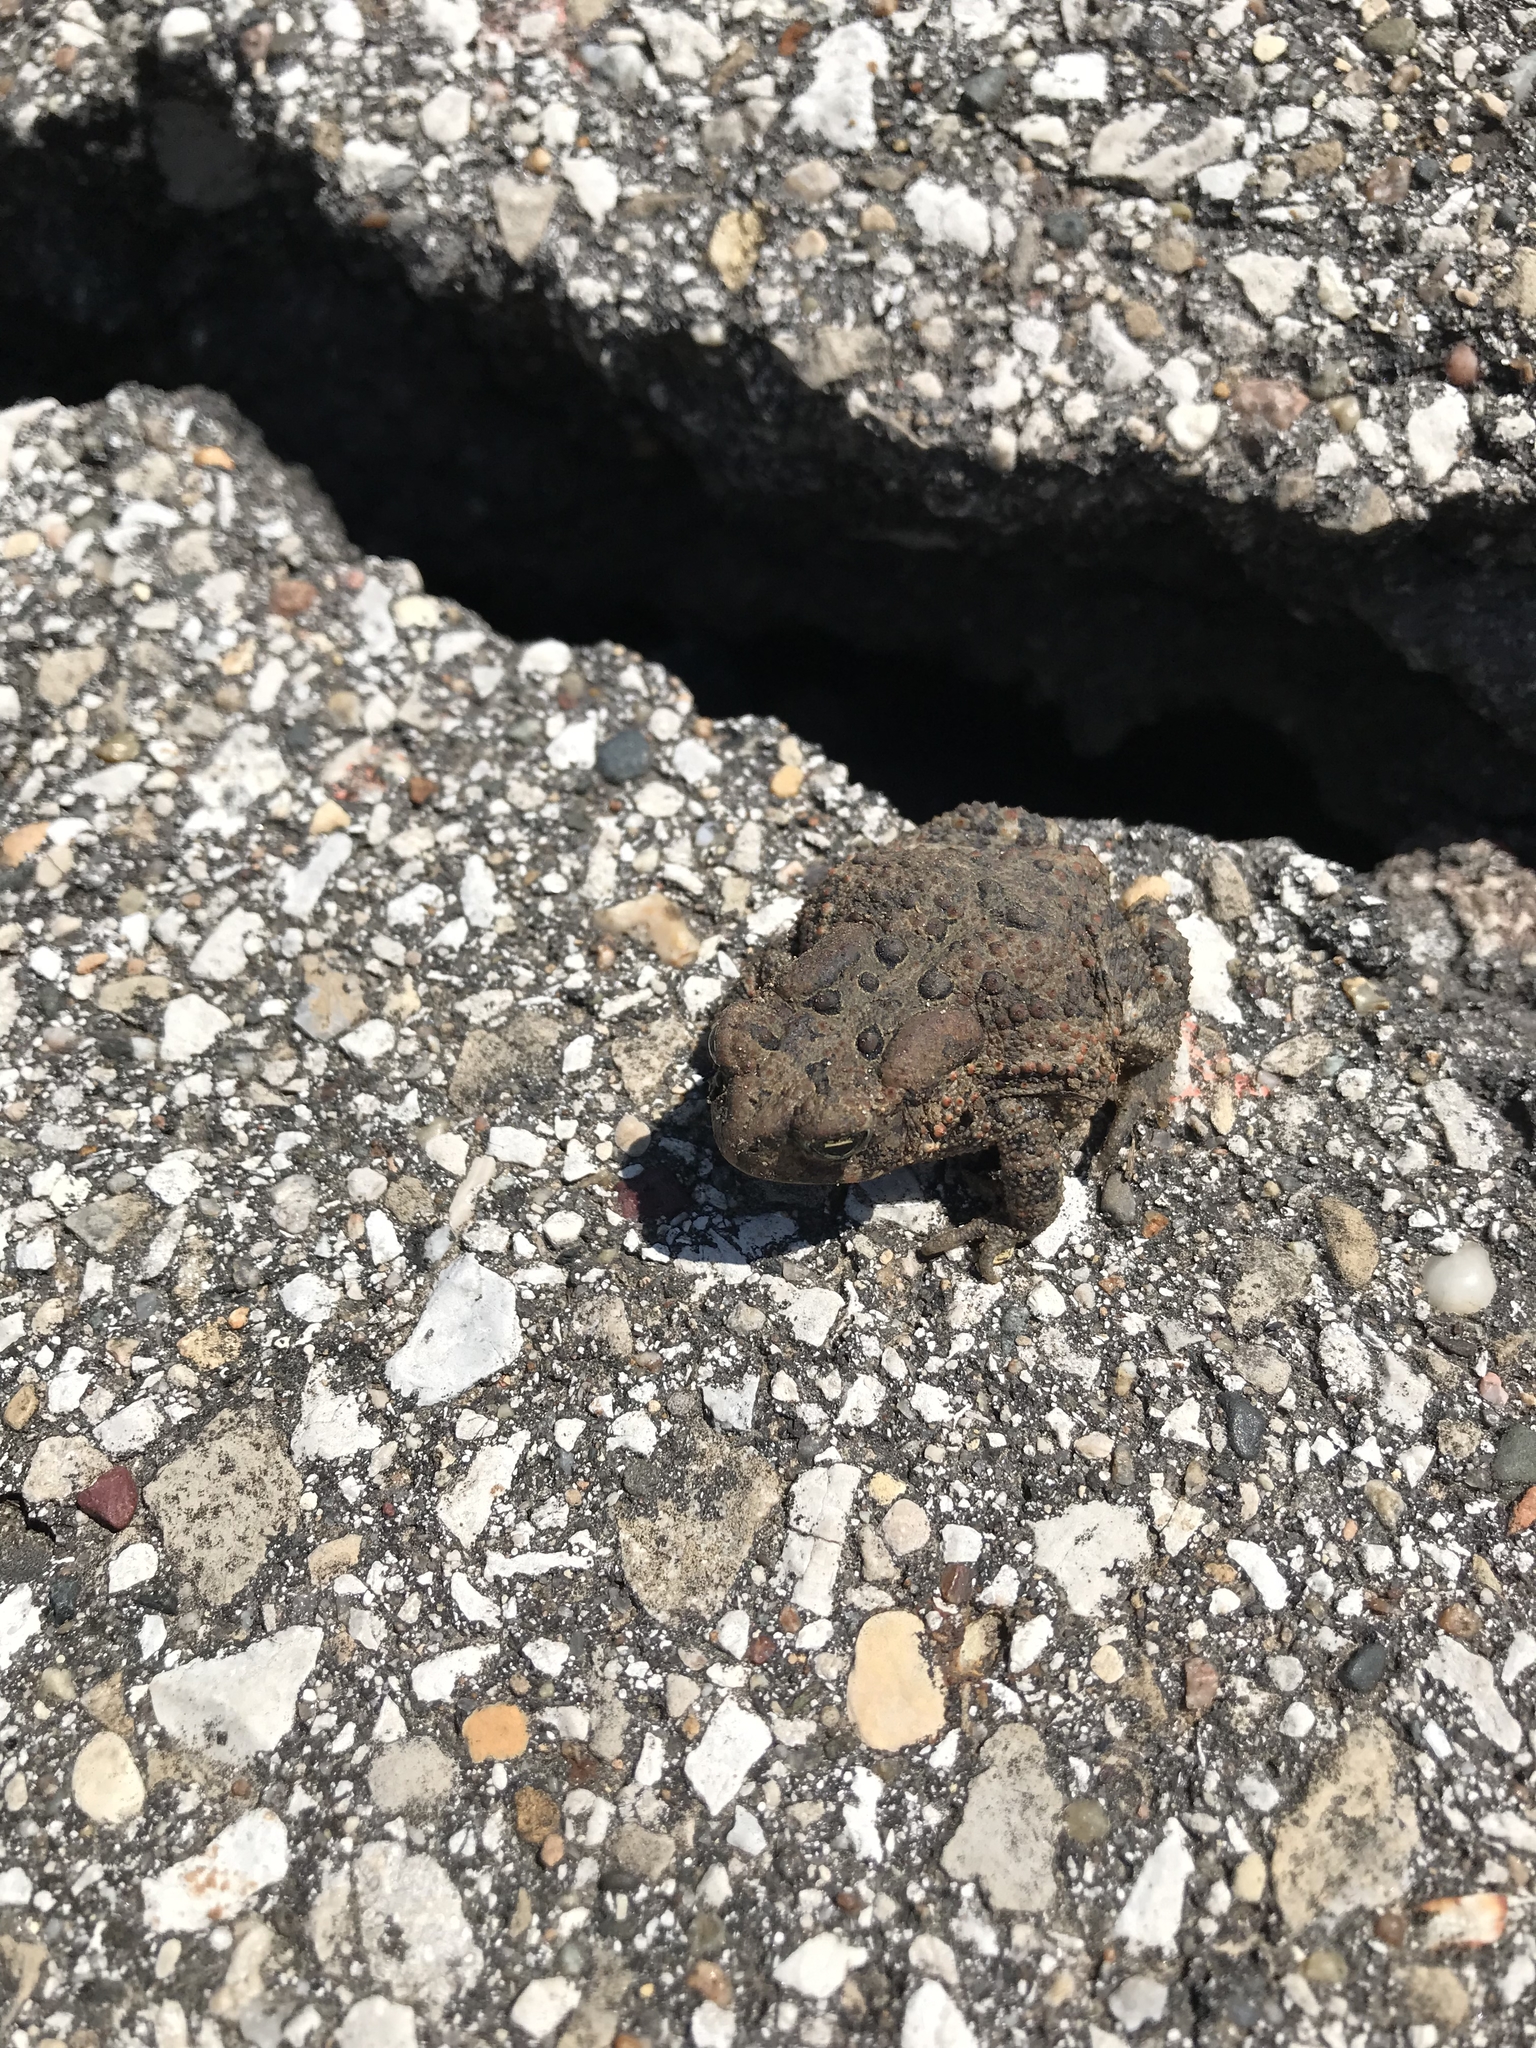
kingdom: Animalia
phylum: Chordata
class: Amphibia
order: Anura
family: Bufonidae
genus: Anaxyrus
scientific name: Anaxyrus americanus
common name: American toad
